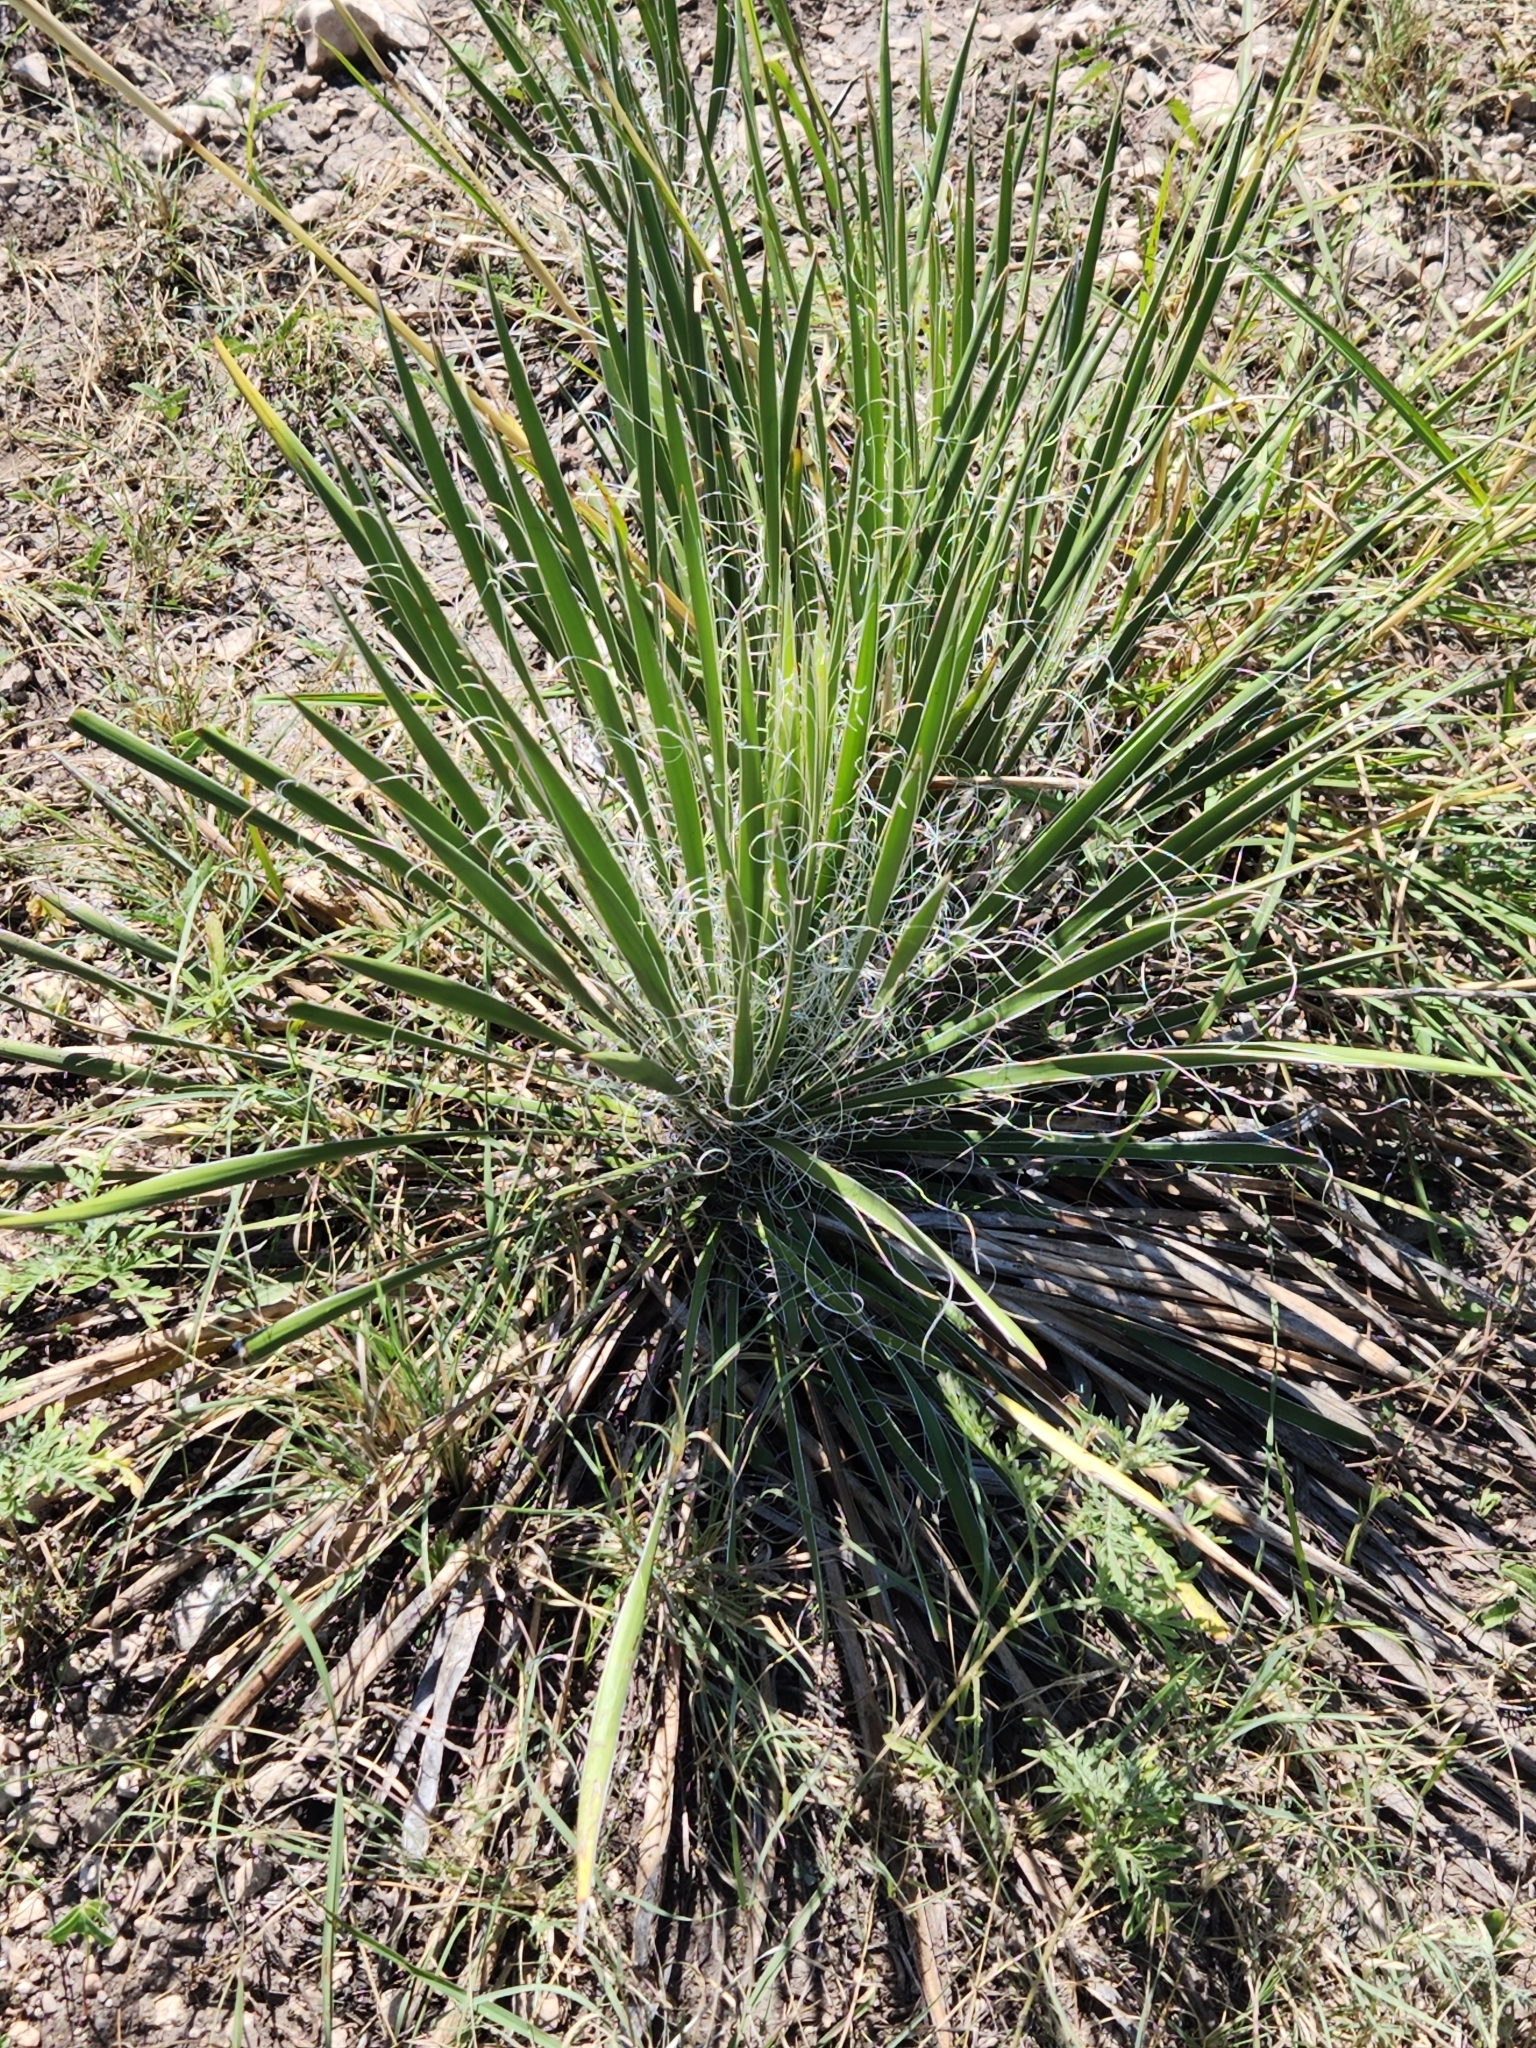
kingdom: Plantae
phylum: Tracheophyta
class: Liliopsida
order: Asparagales
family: Asparagaceae
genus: Yucca
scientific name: Yucca constricta
